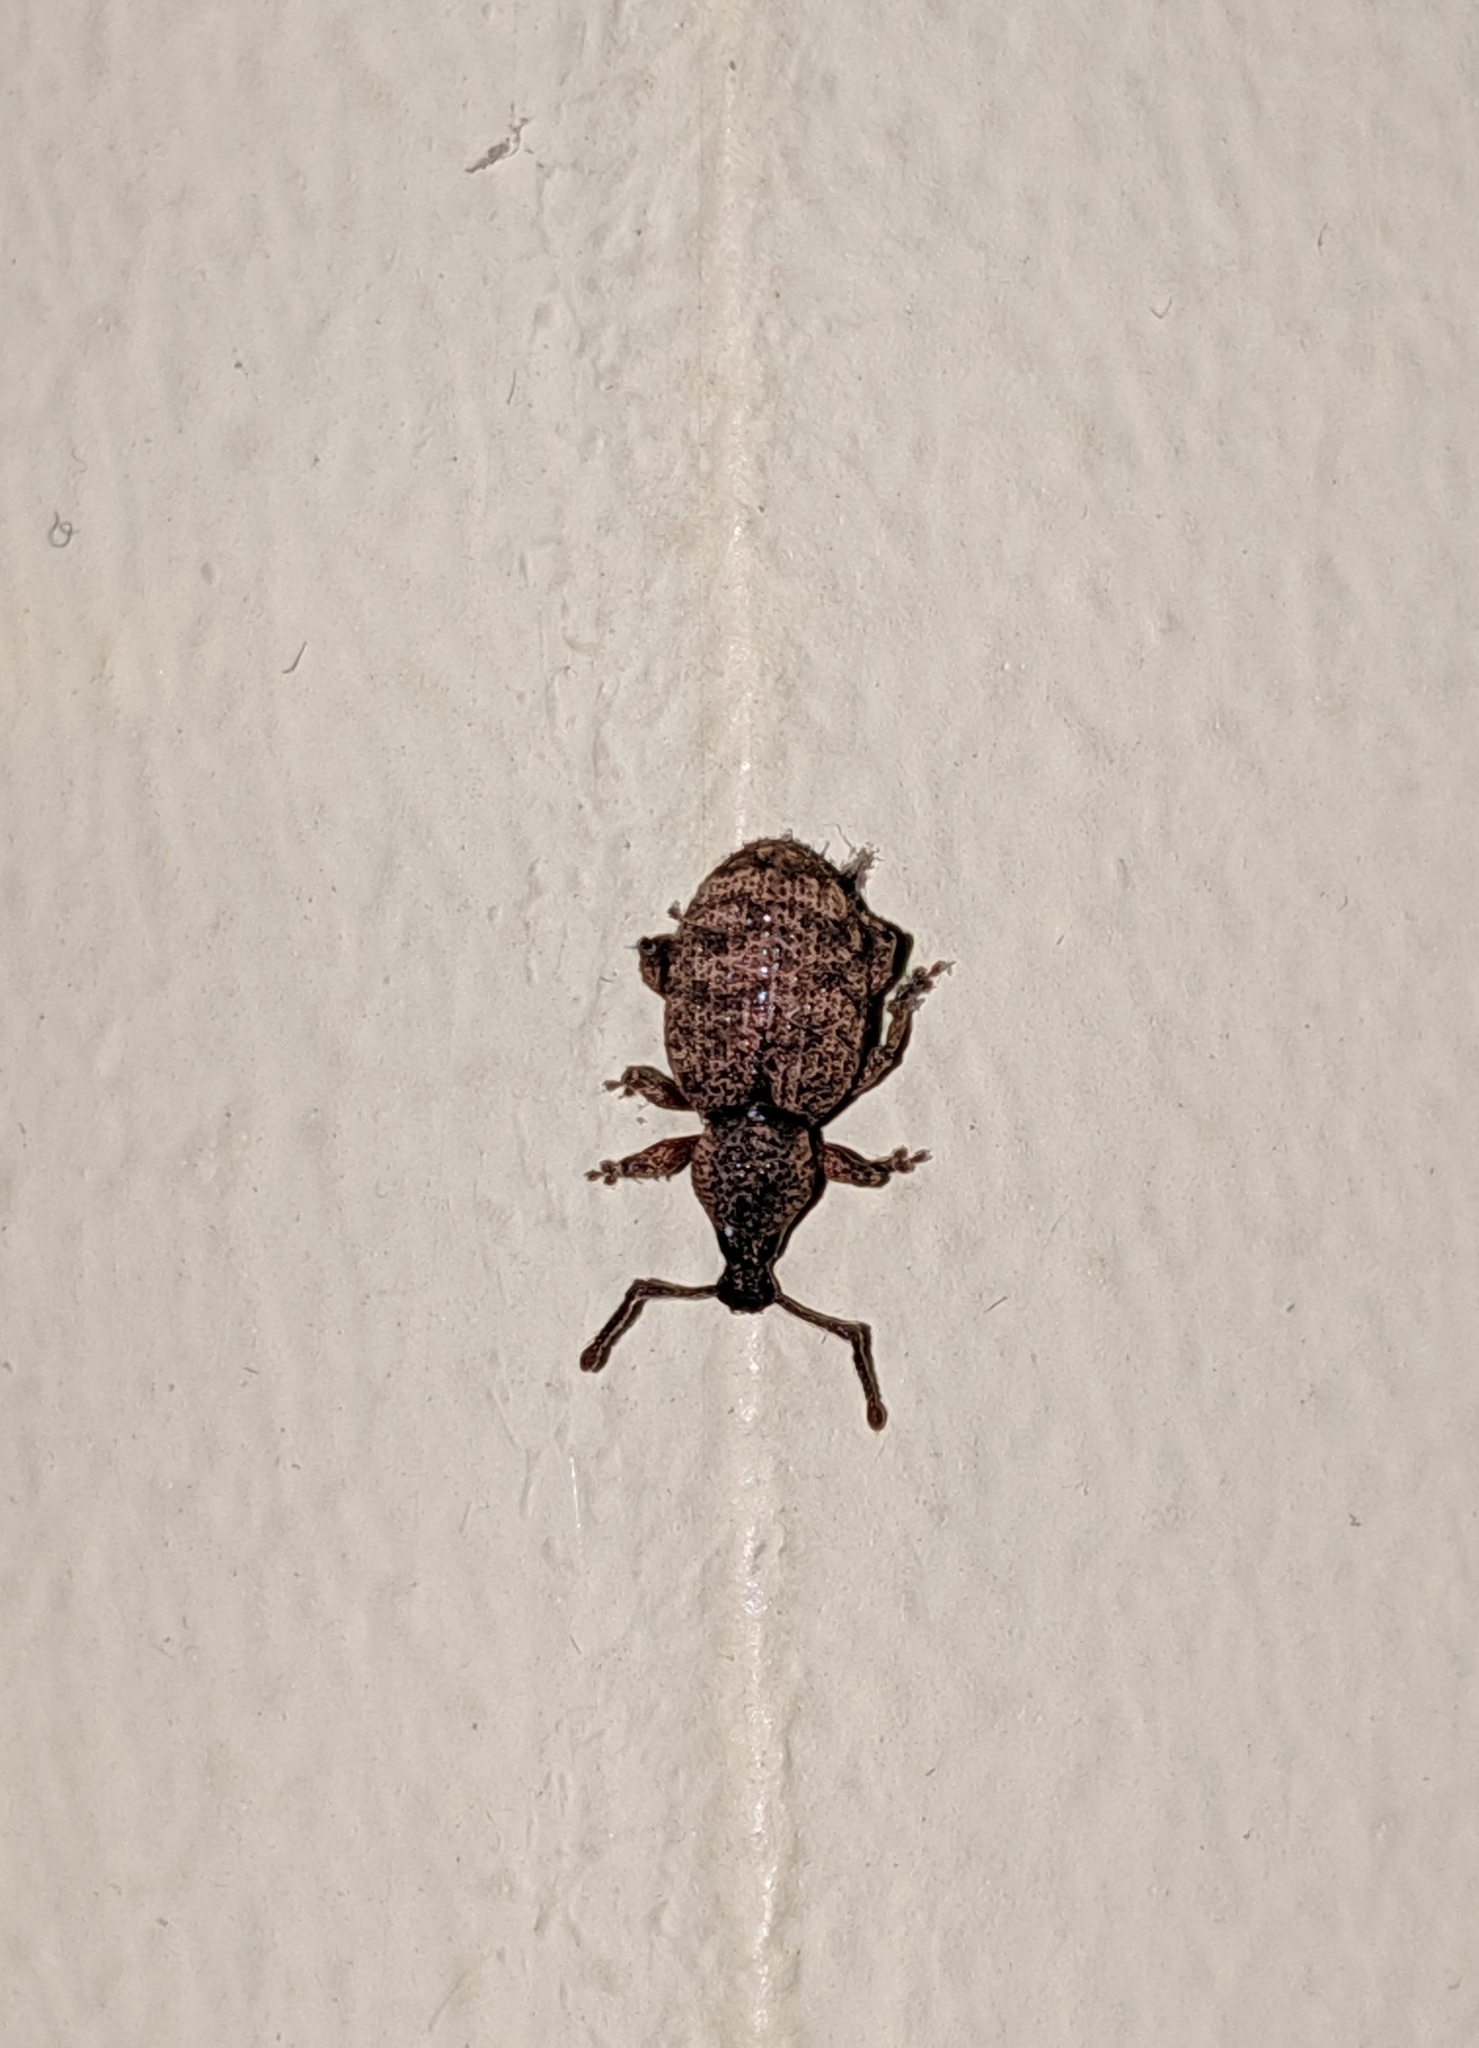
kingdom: Animalia
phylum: Arthropoda
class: Insecta
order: Coleoptera
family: Curculionidae
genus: Otiorhynchus
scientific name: Otiorhynchus singularis
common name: Clay-coloured weevil
